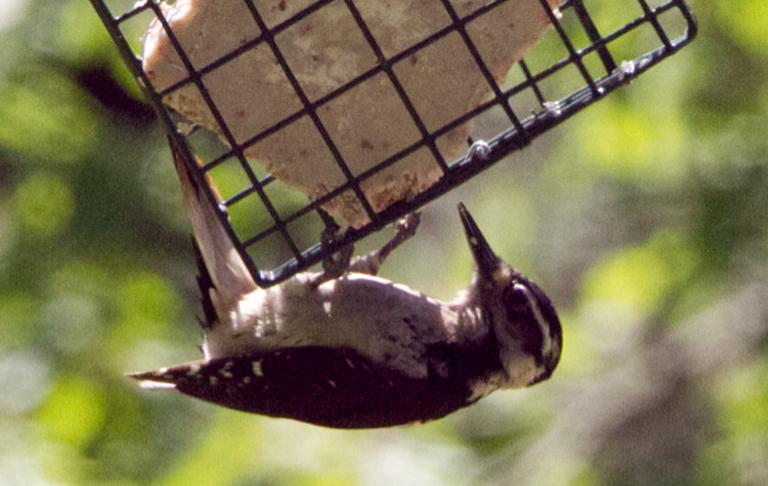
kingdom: Animalia
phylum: Chordata
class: Aves
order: Piciformes
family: Picidae
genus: Leuconotopicus
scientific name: Leuconotopicus villosus
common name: Hairy woodpecker
